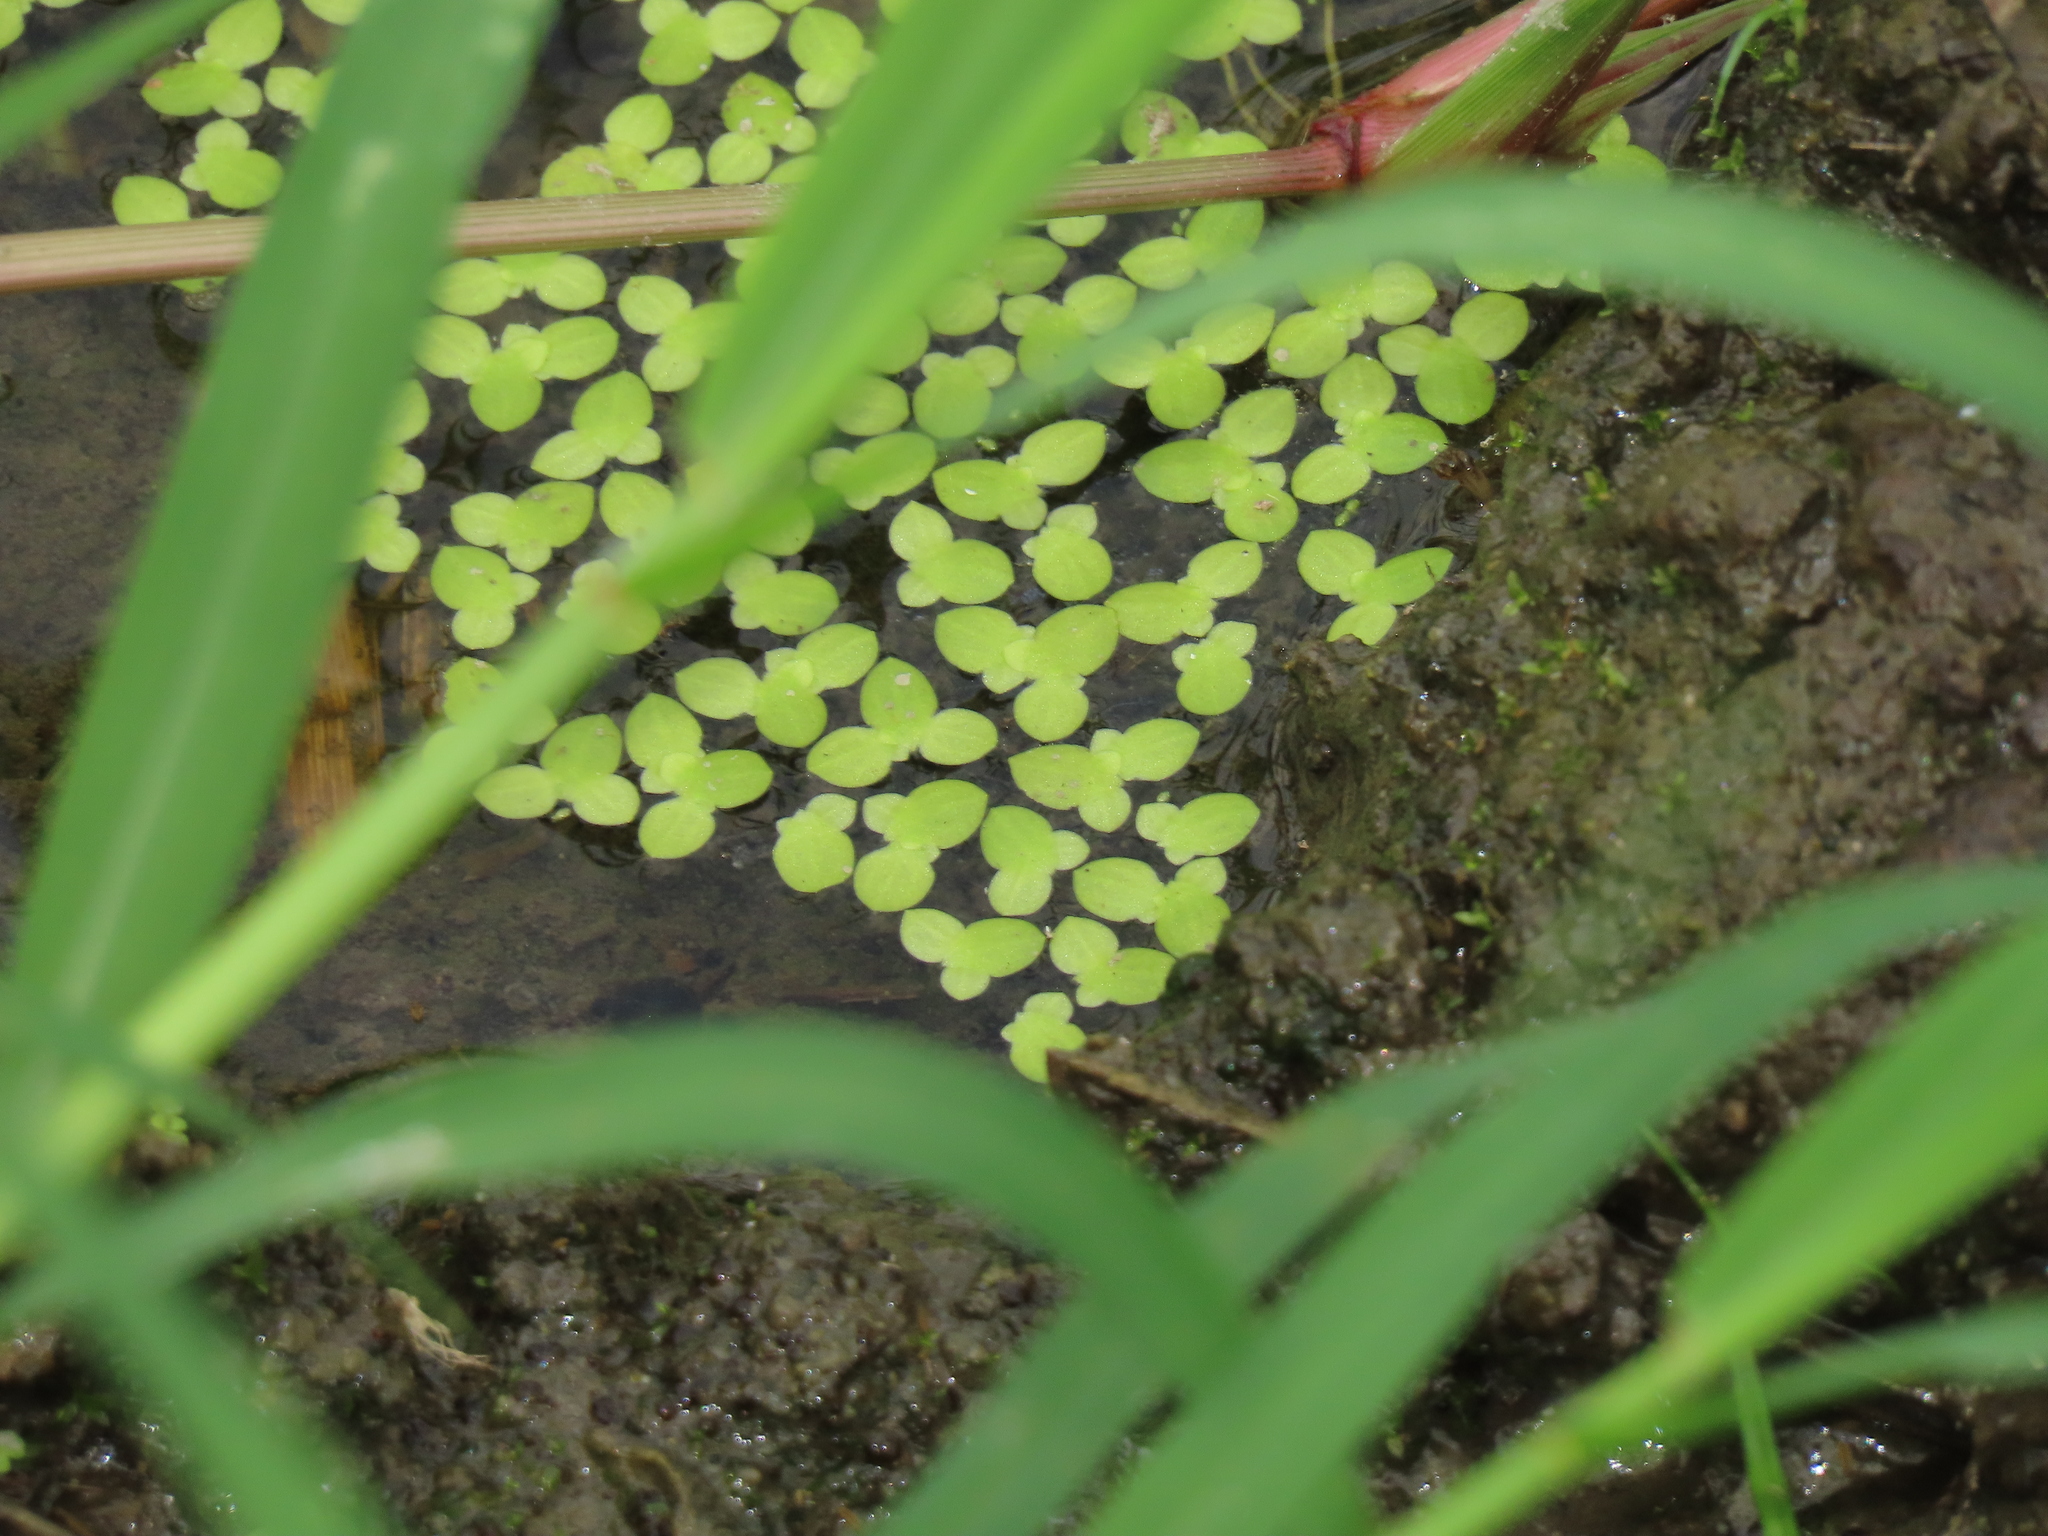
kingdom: Plantae
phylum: Tracheophyta
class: Liliopsida
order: Alismatales
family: Araceae
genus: Lemna
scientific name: Lemna aequinoctialis
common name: Duckweed
